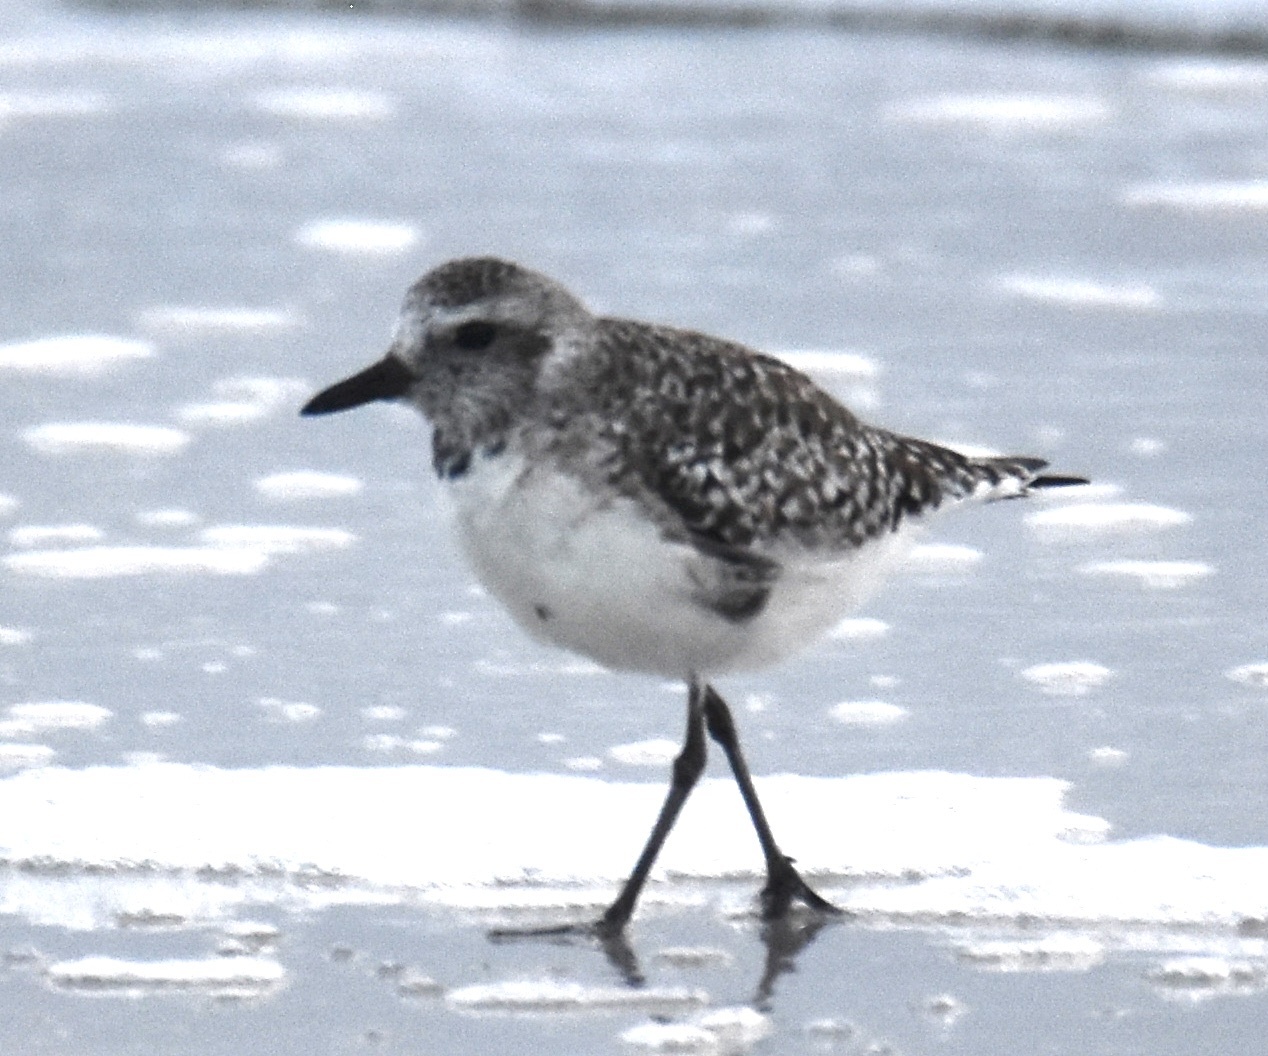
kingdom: Animalia
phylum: Chordata
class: Aves
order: Charadriiformes
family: Charadriidae
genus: Pluvialis
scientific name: Pluvialis squatarola
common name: Grey plover
